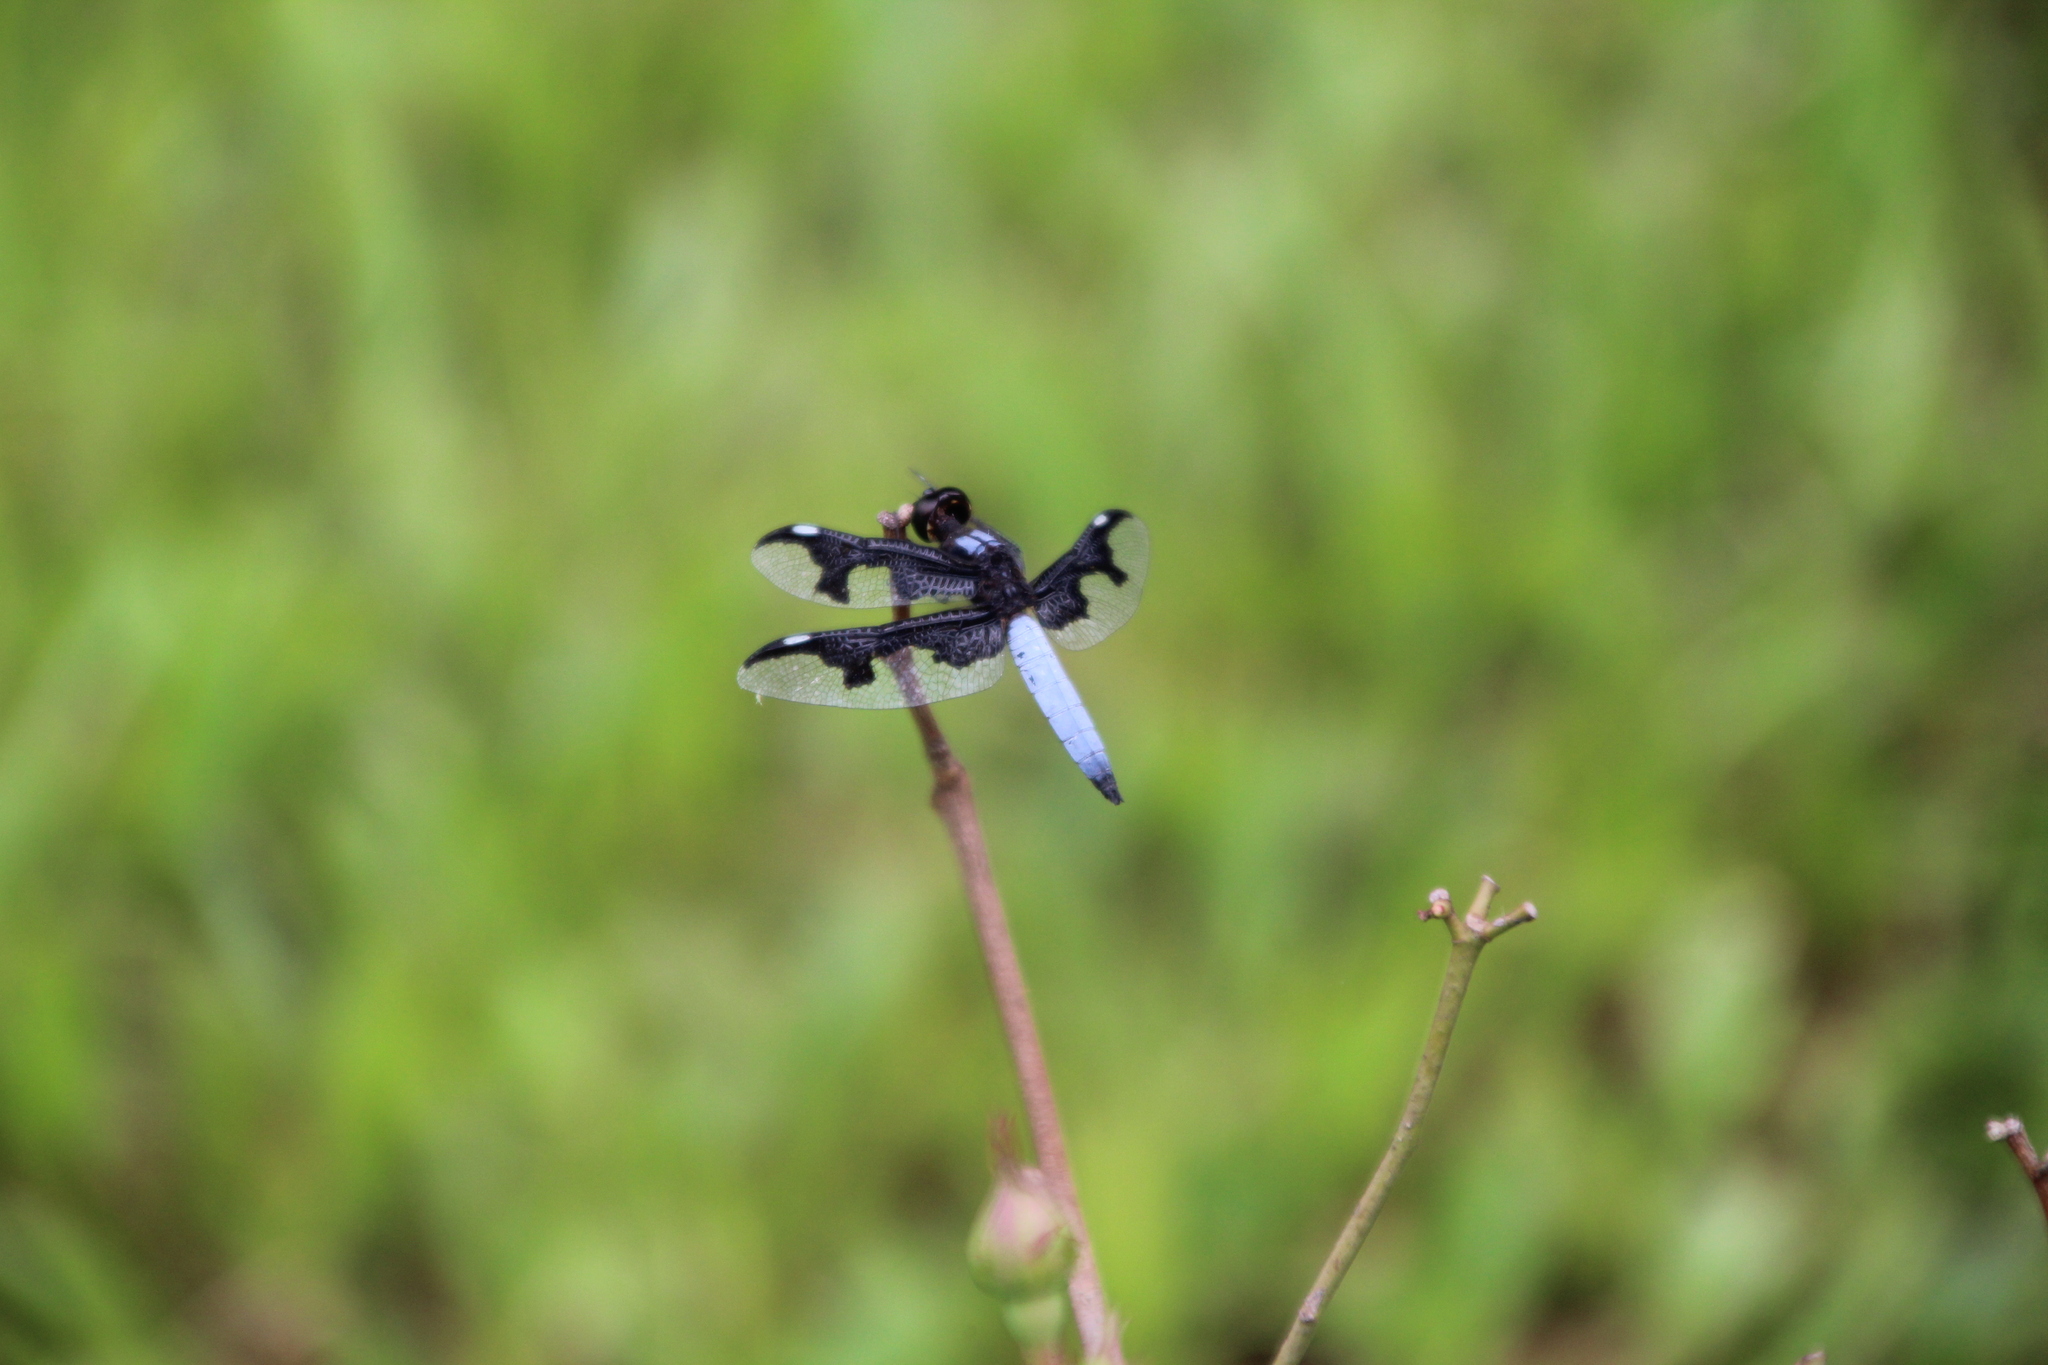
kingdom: Animalia
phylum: Arthropoda
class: Insecta
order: Odonata
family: Libellulidae
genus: Palpopleura
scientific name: Palpopleura portia
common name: Portia widow
